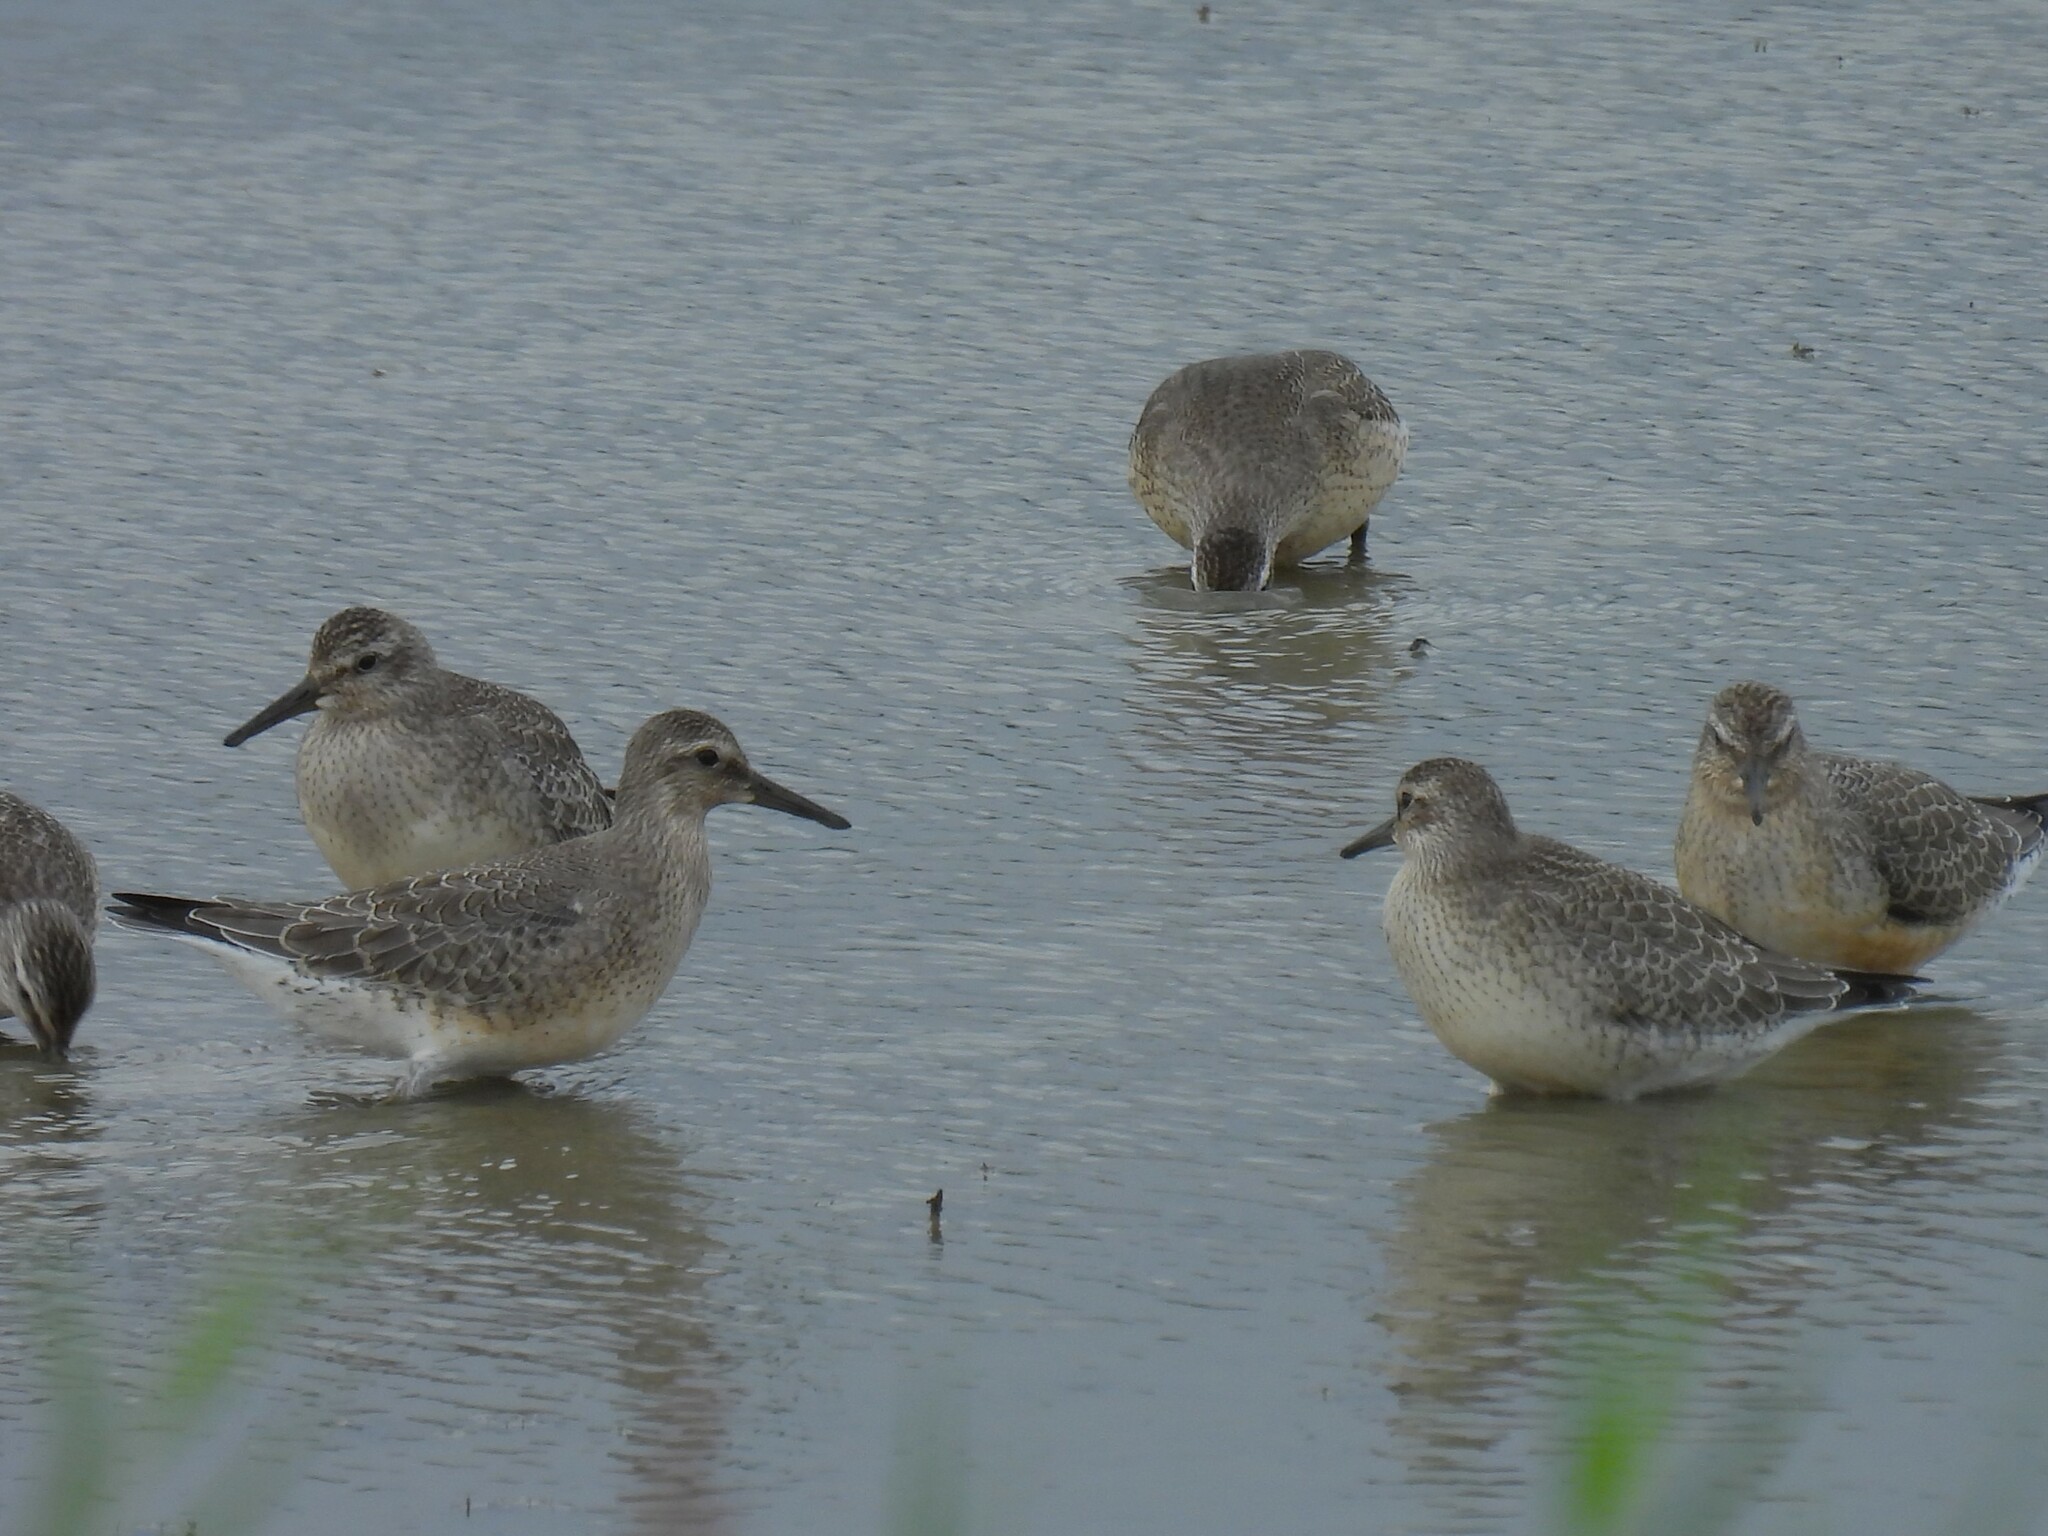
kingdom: Animalia
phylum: Chordata
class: Aves
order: Charadriiformes
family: Scolopacidae
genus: Calidris
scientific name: Calidris canutus
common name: Red knot
